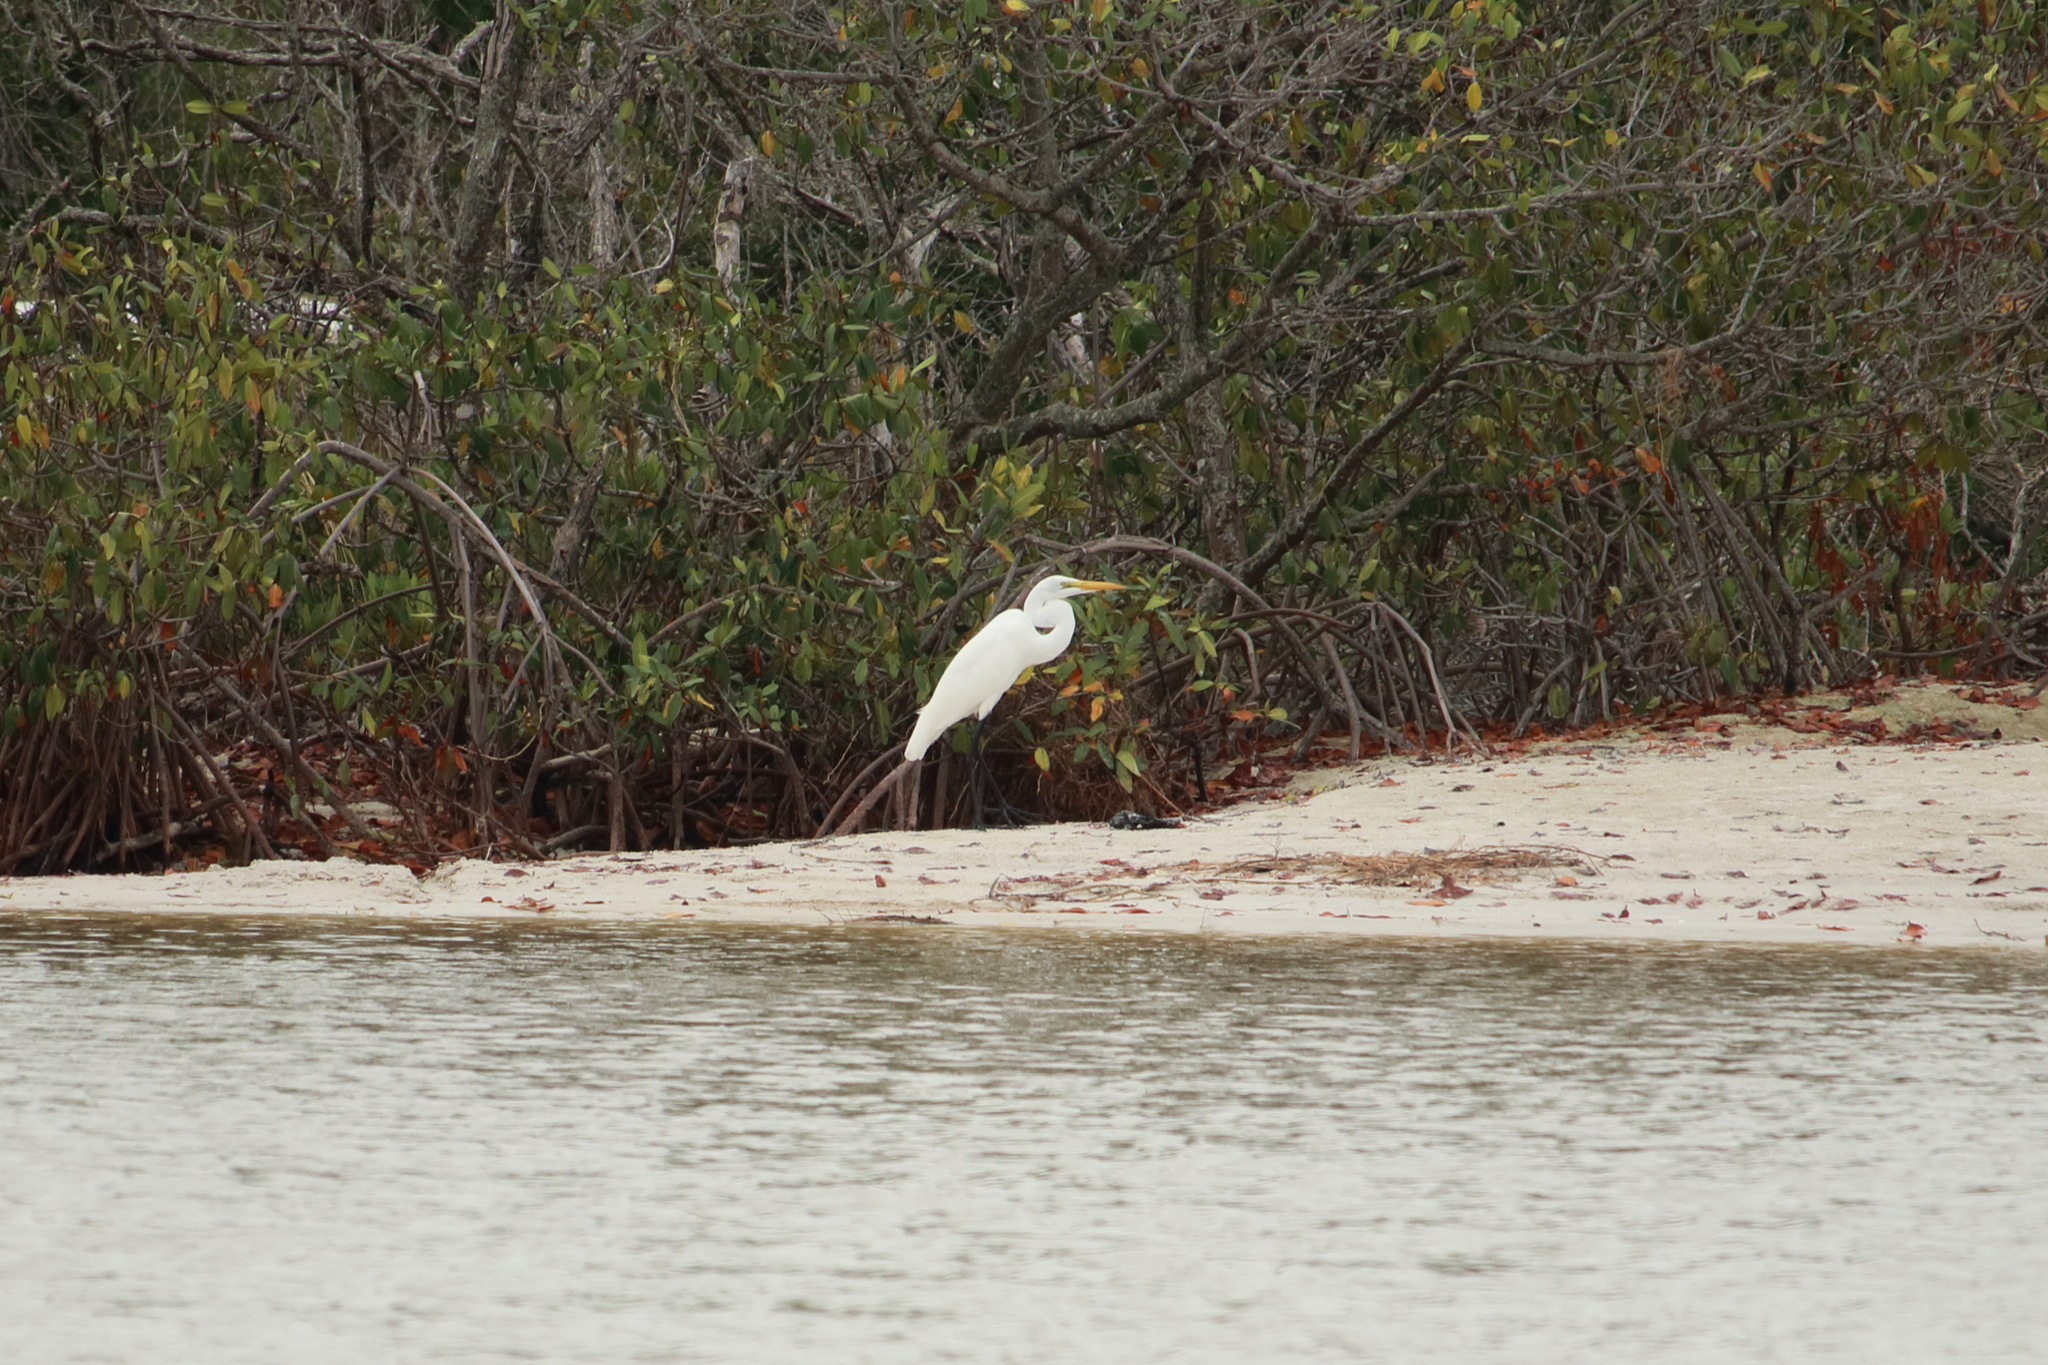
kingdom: Animalia
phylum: Chordata
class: Aves
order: Pelecaniformes
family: Ardeidae
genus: Ardea
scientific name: Ardea alba
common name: Great egret
